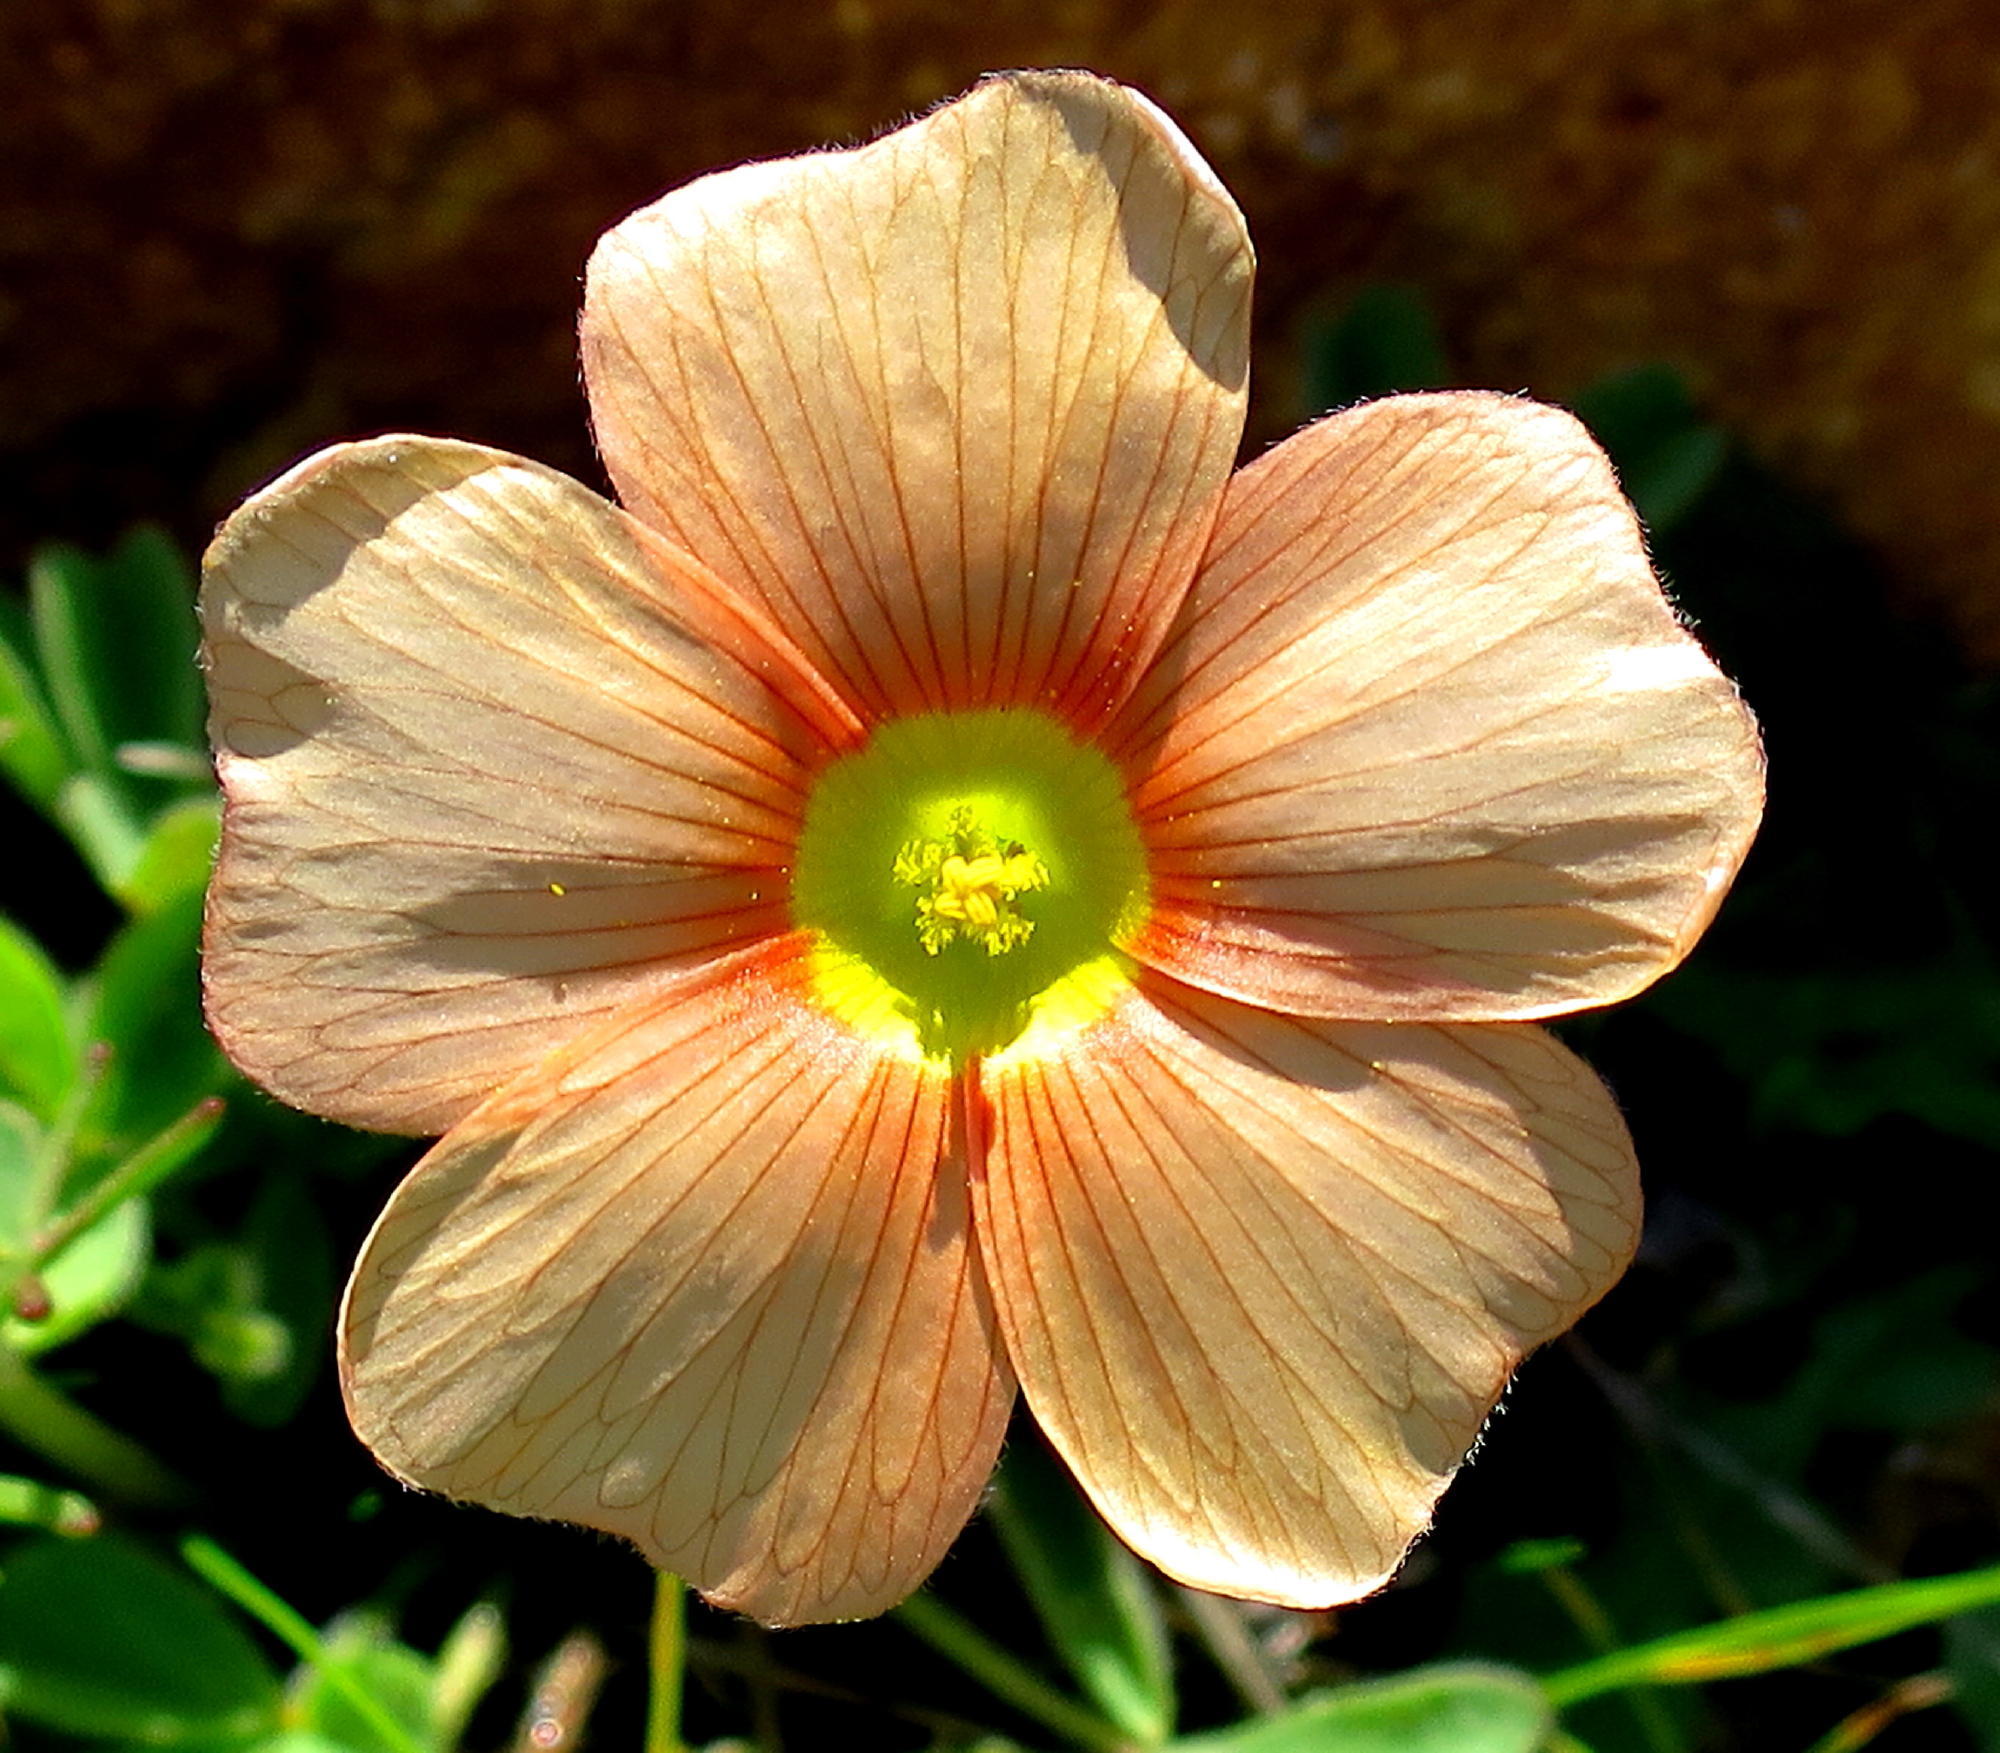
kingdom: Plantae
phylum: Tracheophyta
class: Magnoliopsida
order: Oxalidales
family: Oxalidaceae
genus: Oxalis
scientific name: Oxalis obtusa
